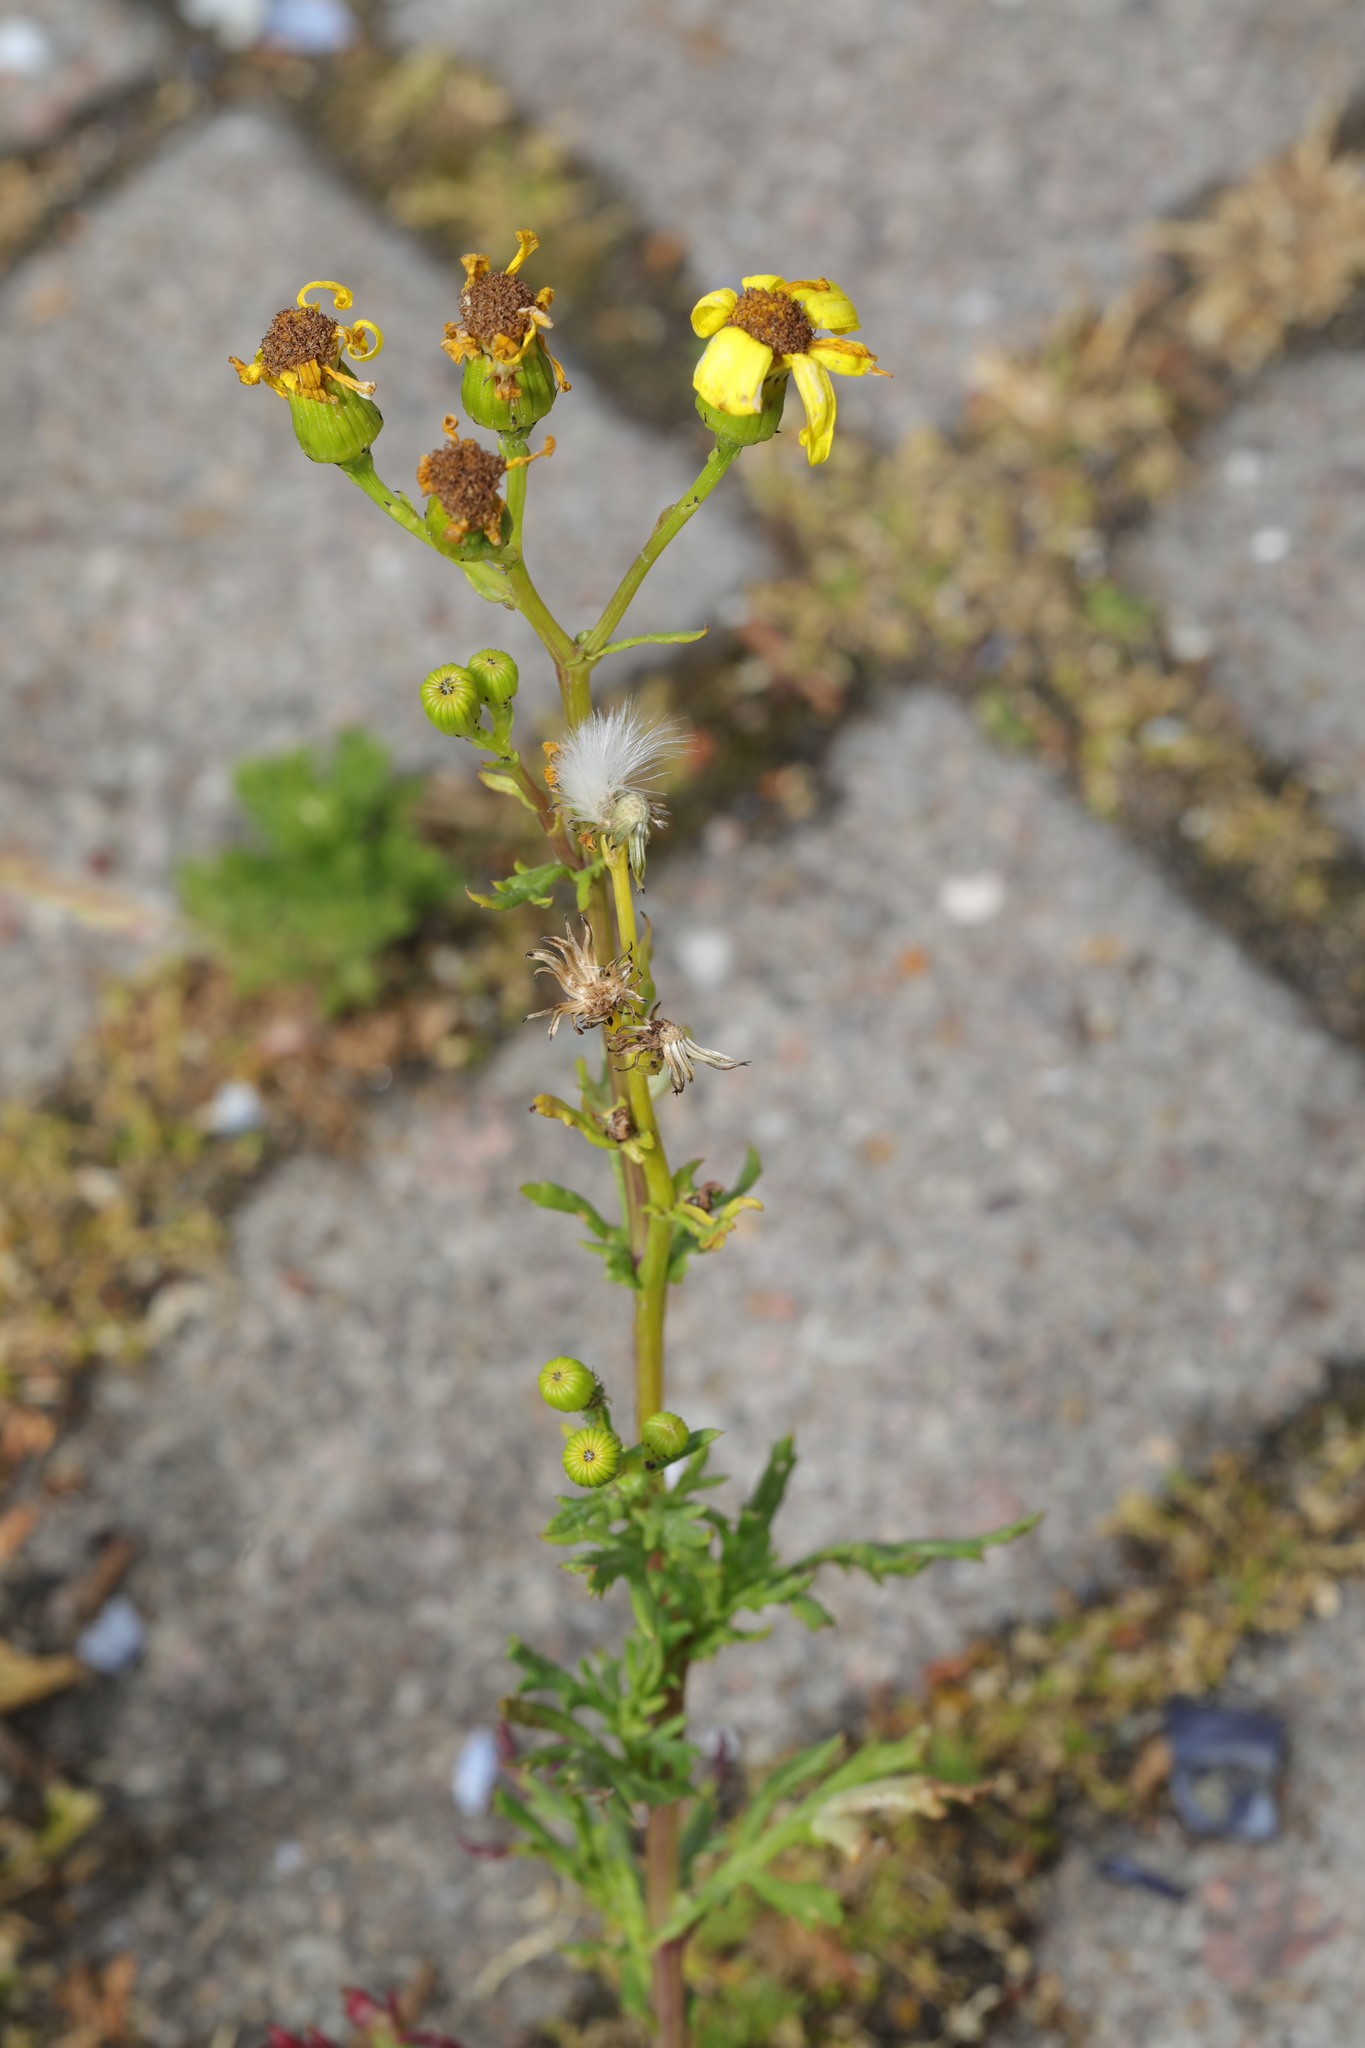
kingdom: Plantae
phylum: Tracheophyta
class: Magnoliopsida
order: Asterales
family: Asteraceae
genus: Senecio
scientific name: Senecio squalidus
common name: Oxford ragwort
